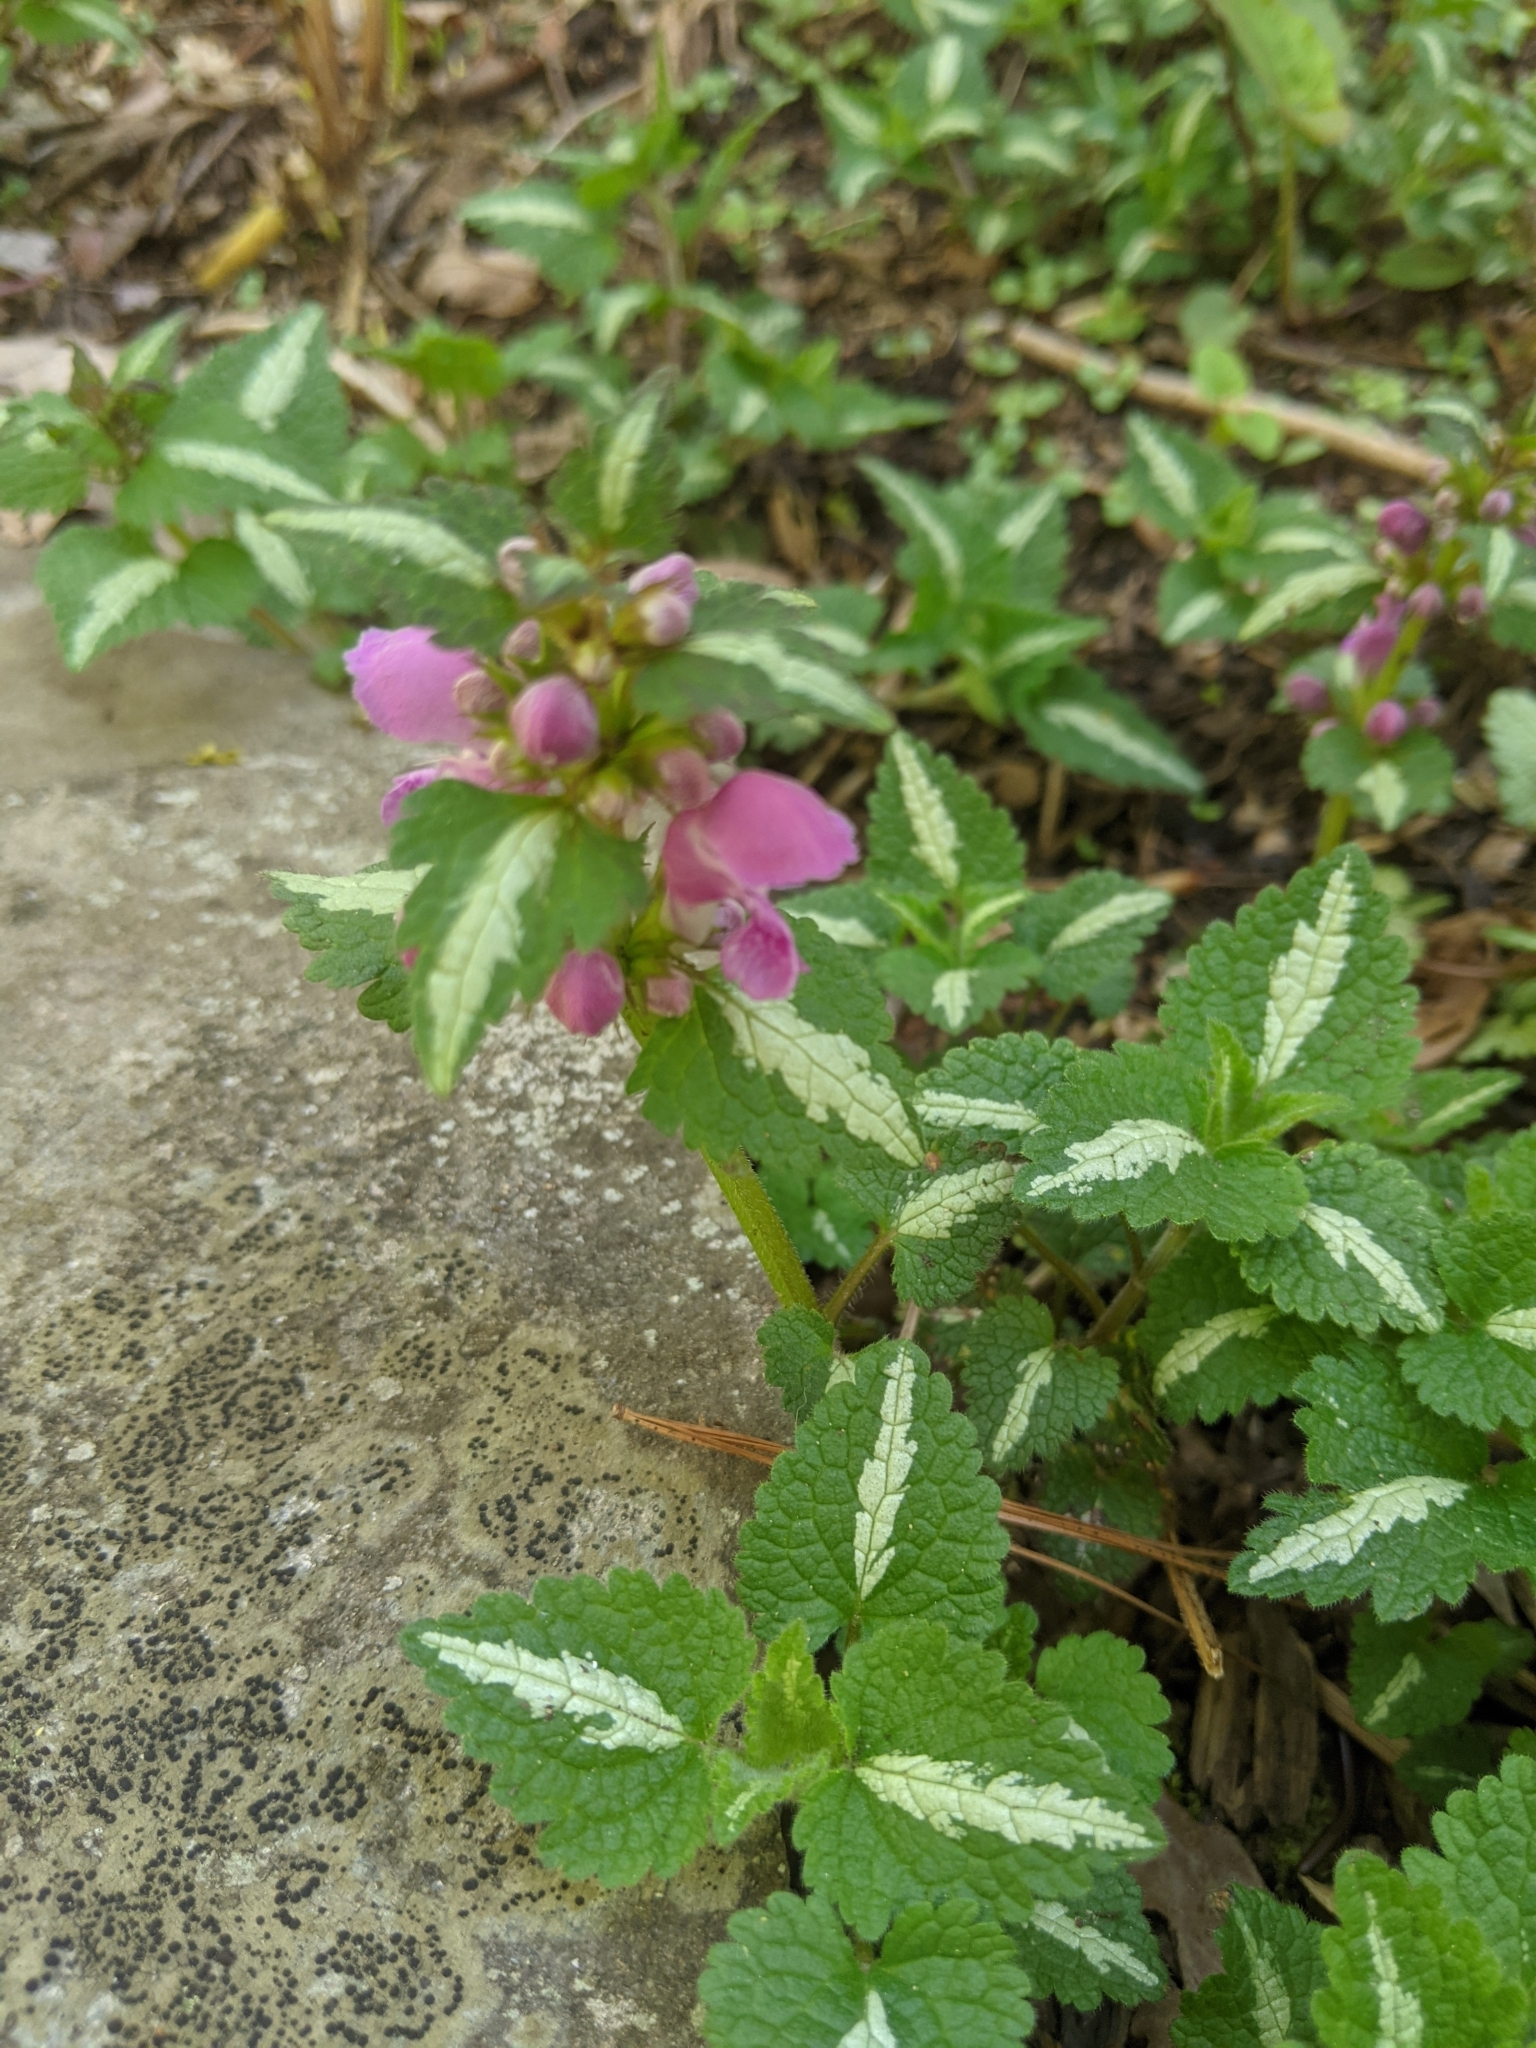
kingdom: Plantae
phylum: Tracheophyta
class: Magnoliopsida
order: Lamiales
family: Lamiaceae
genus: Lamium
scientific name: Lamium maculatum
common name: Spotted dead-nettle
